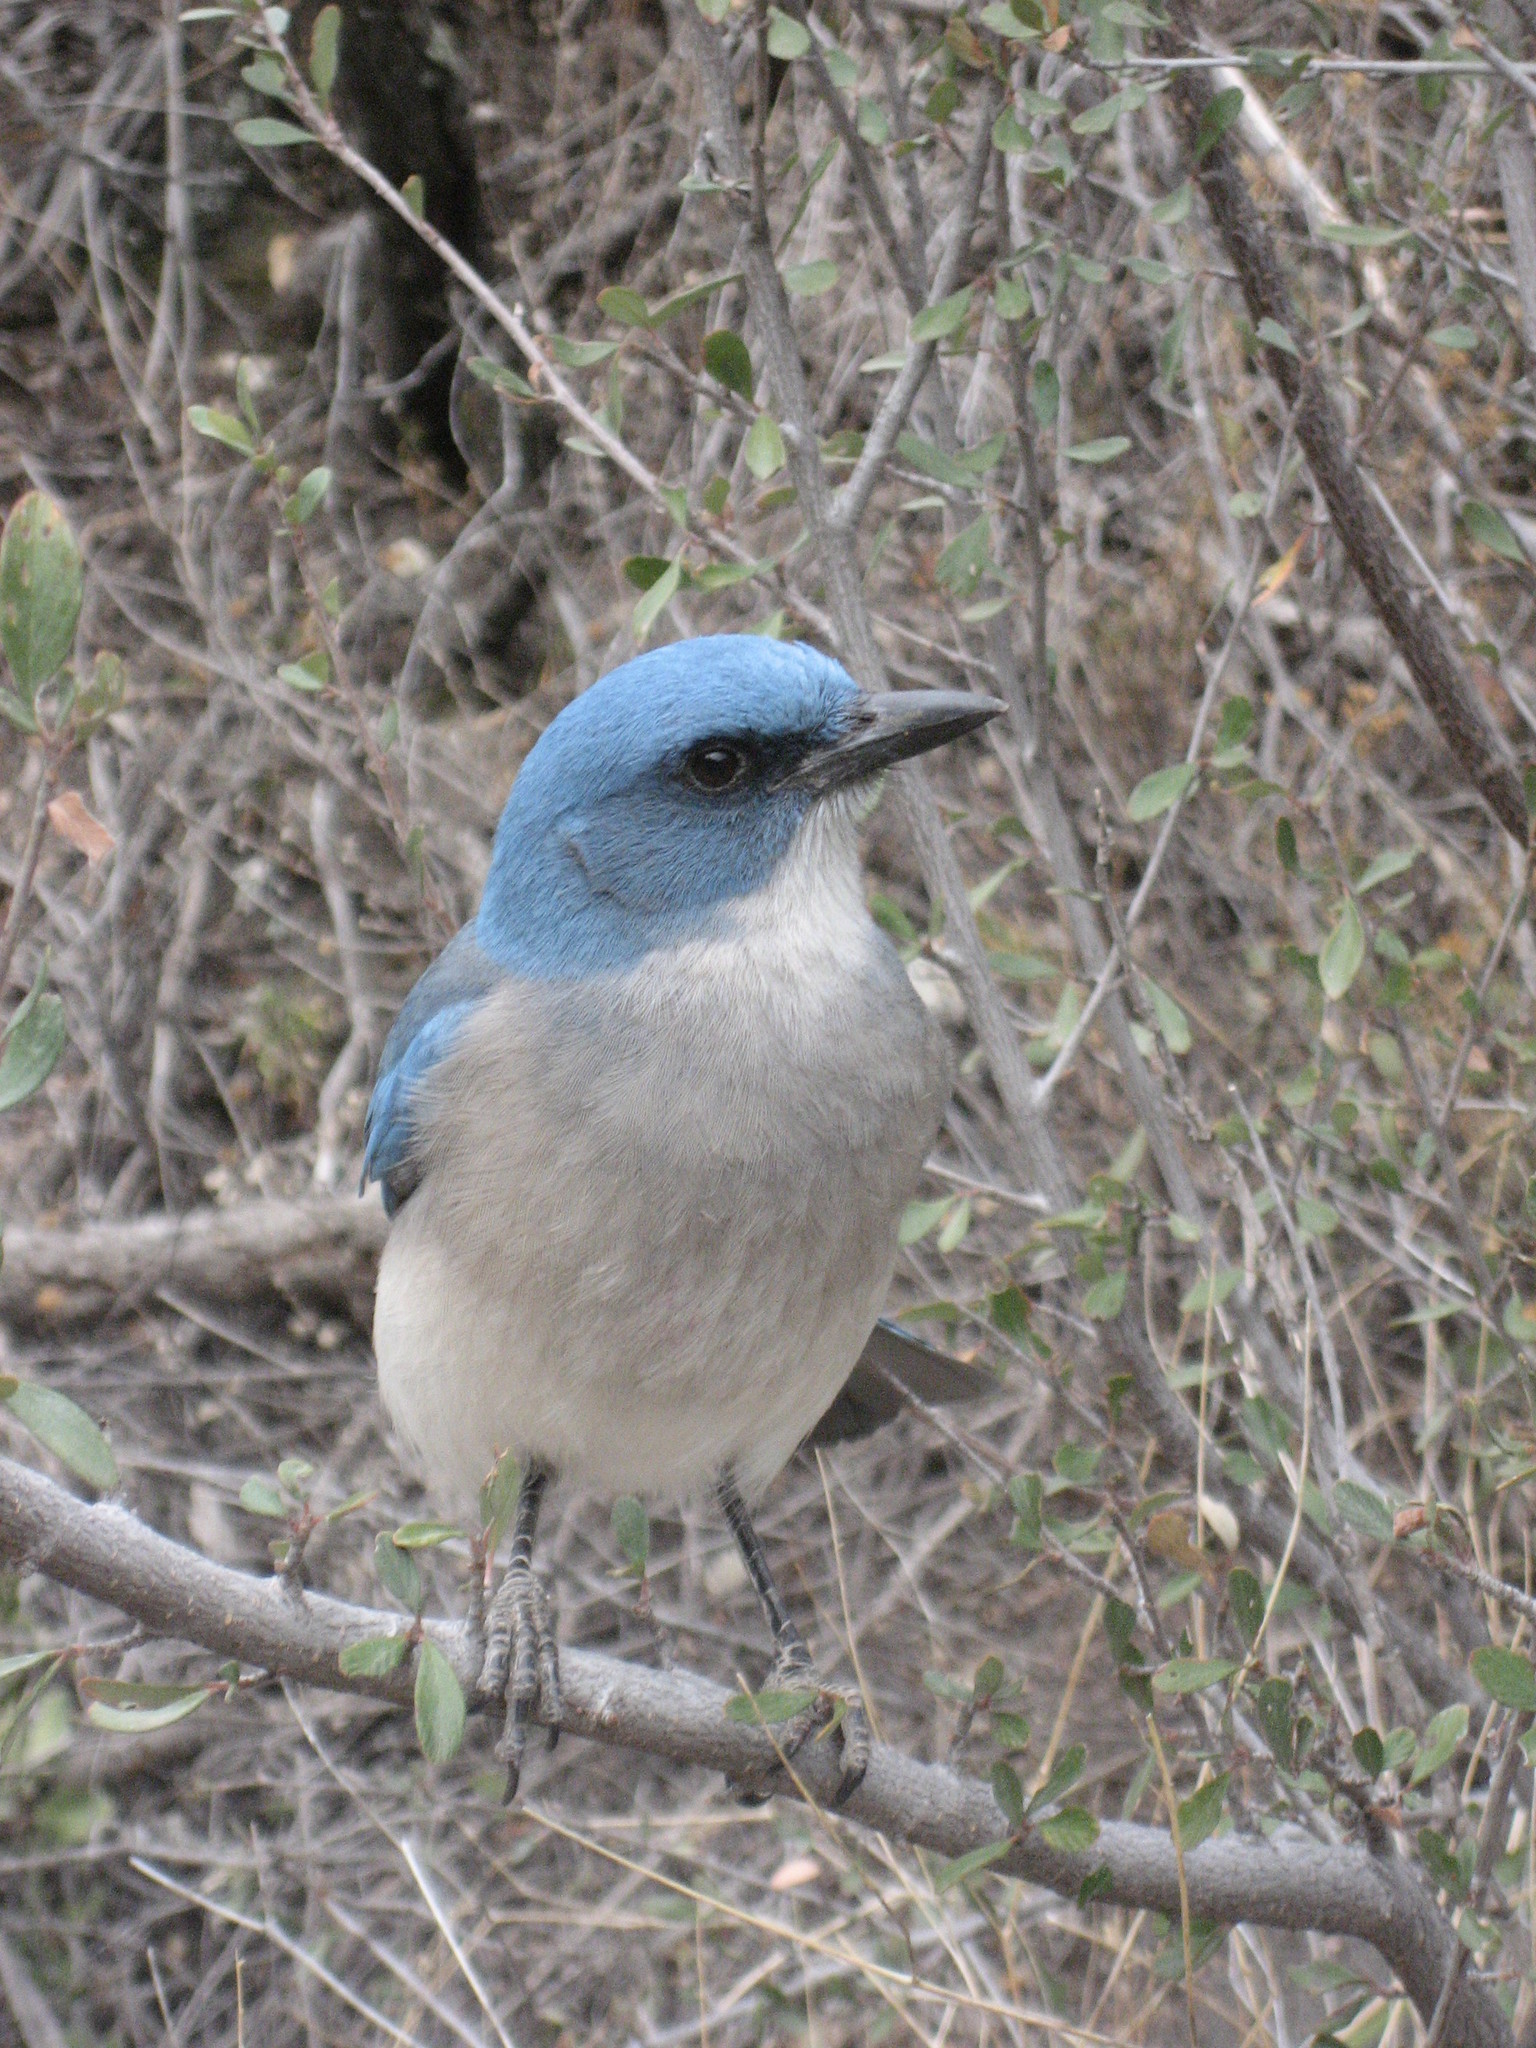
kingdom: Animalia
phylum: Chordata
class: Aves
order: Passeriformes
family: Corvidae
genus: Aphelocoma
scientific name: Aphelocoma wollweberi
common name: Mexican jay
